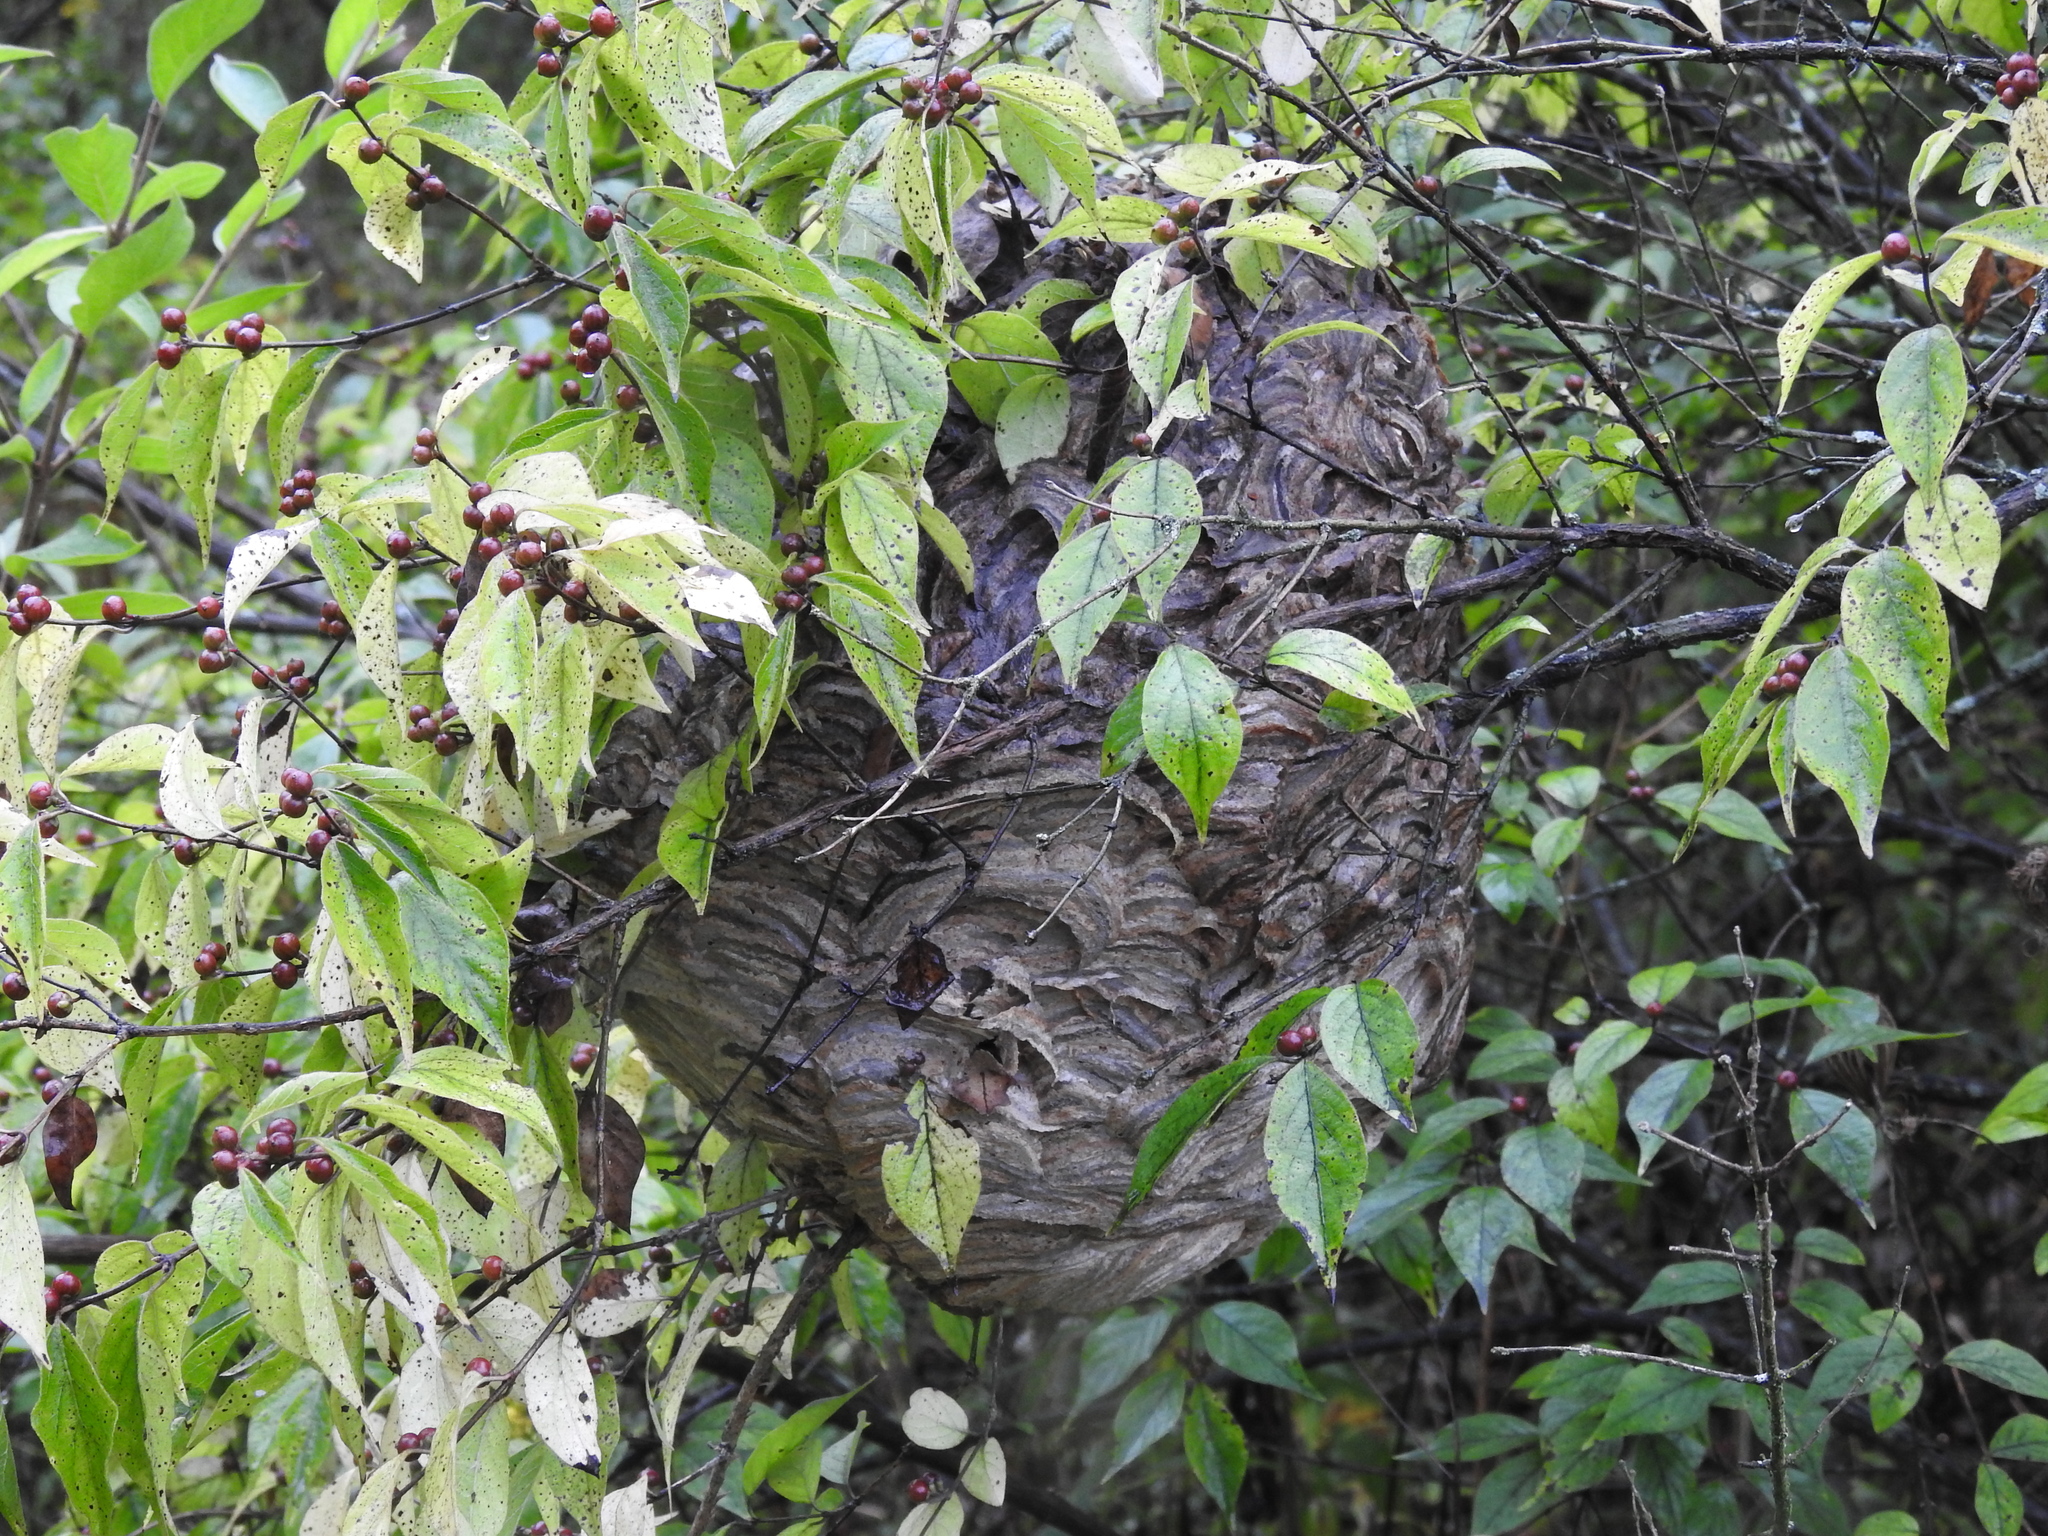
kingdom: Animalia
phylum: Arthropoda
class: Insecta
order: Hymenoptera
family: Vespidae
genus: Dolichovespula
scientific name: Dolichovespula maculata
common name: Bald-faced hornet
